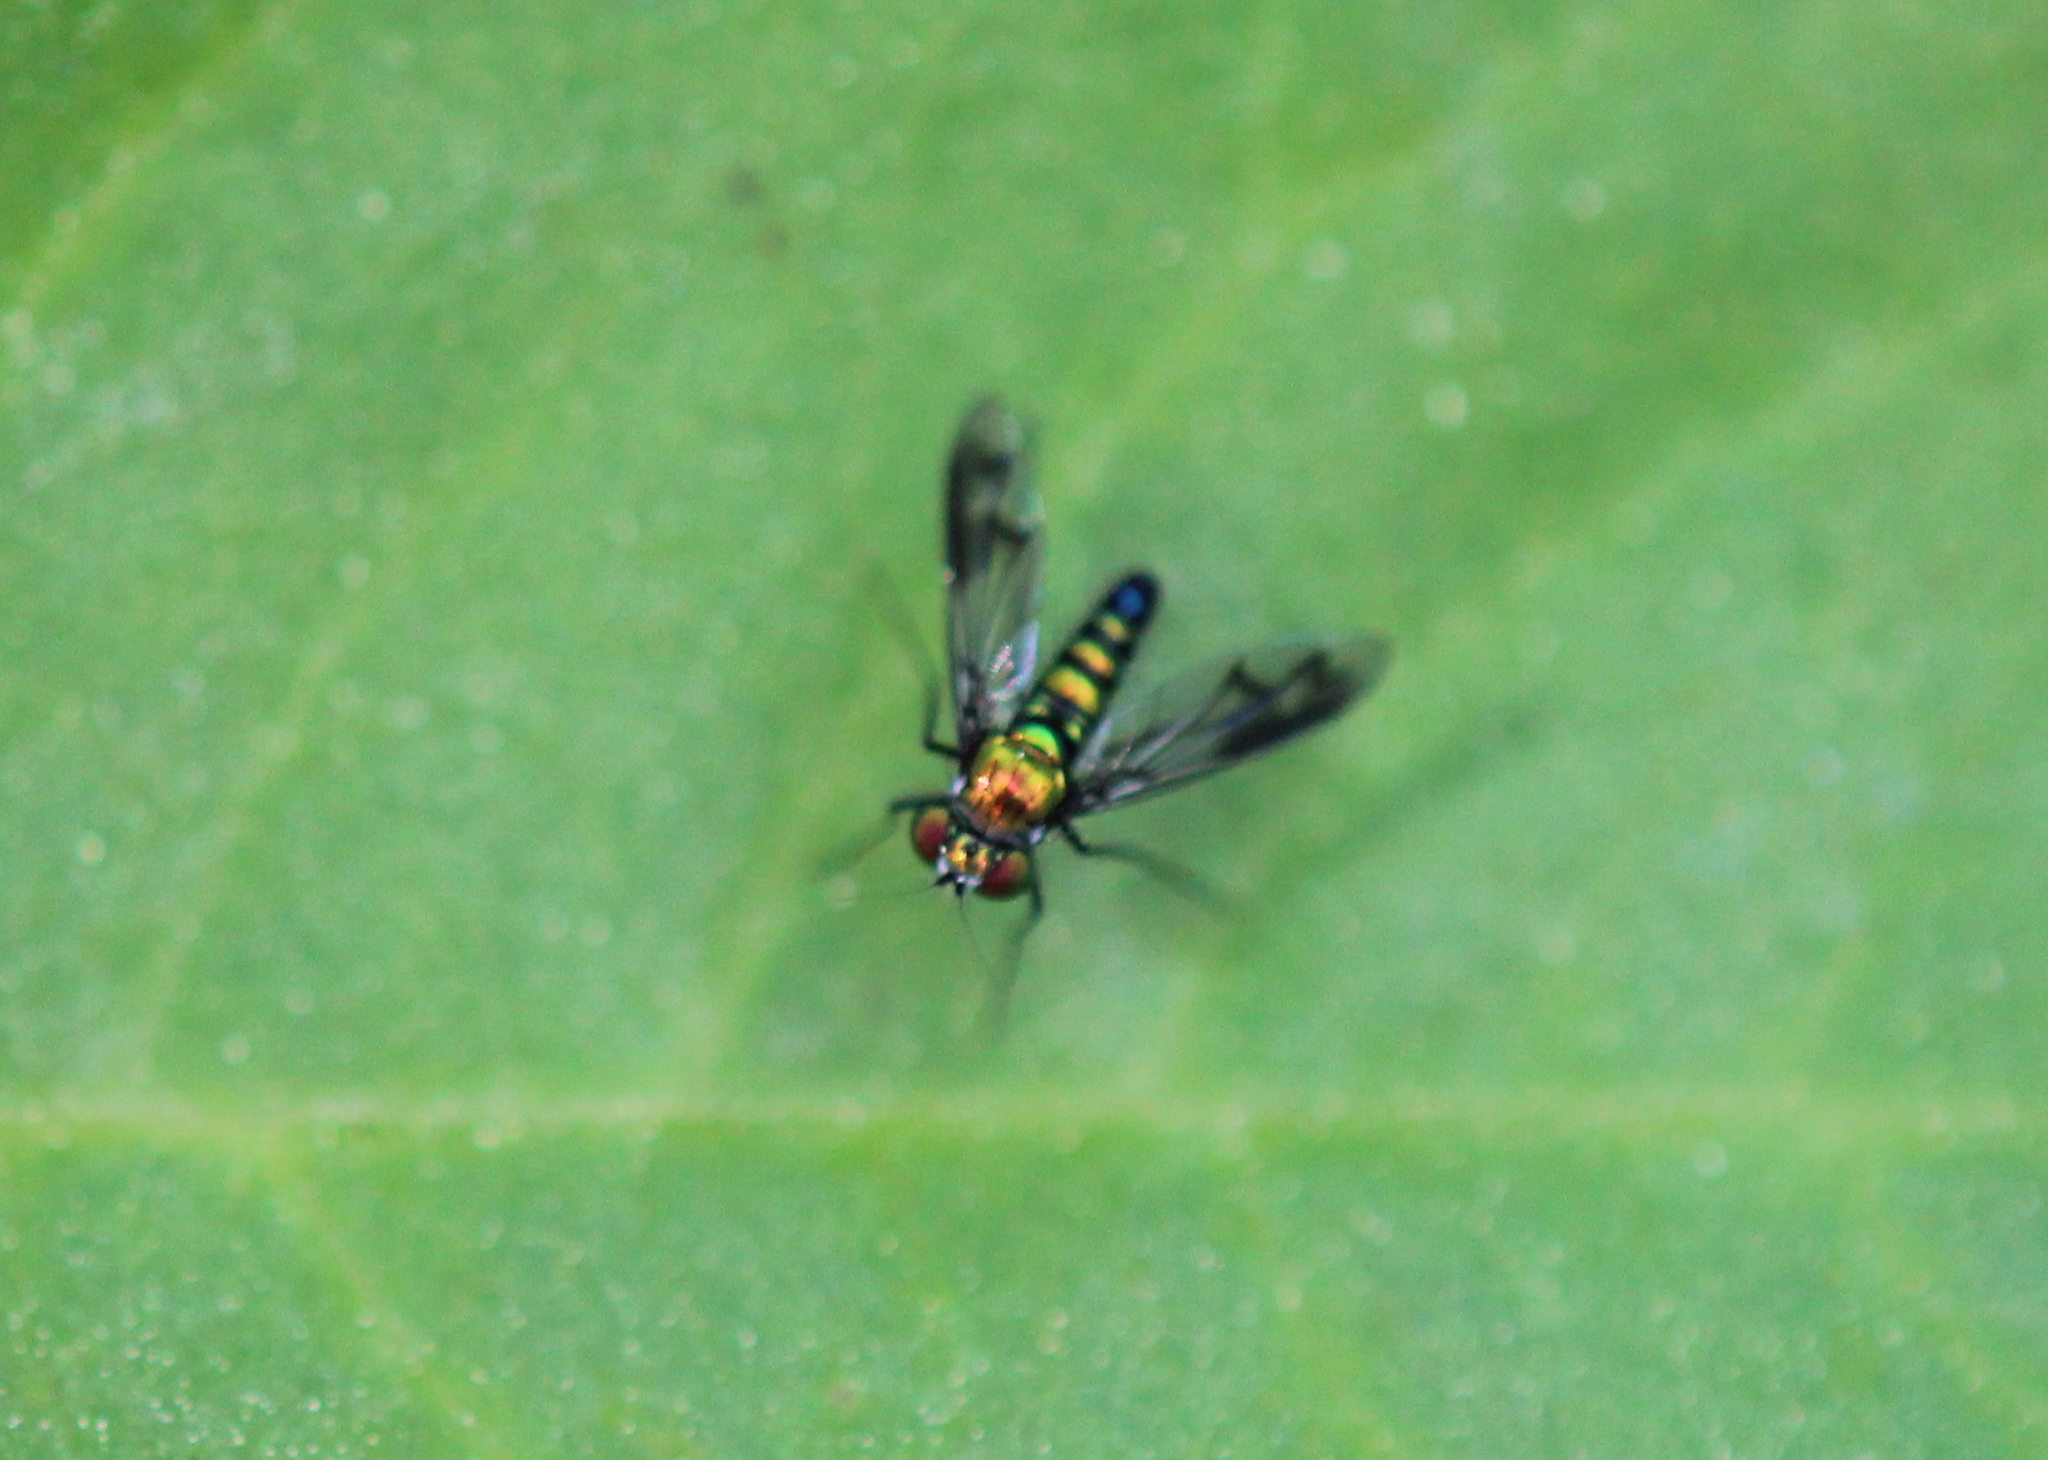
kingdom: Animalia
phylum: Arthropoda
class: Insecta
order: Diptera
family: Dolichopodidae
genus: Condylostylus
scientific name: Condylostylus patibulatus
